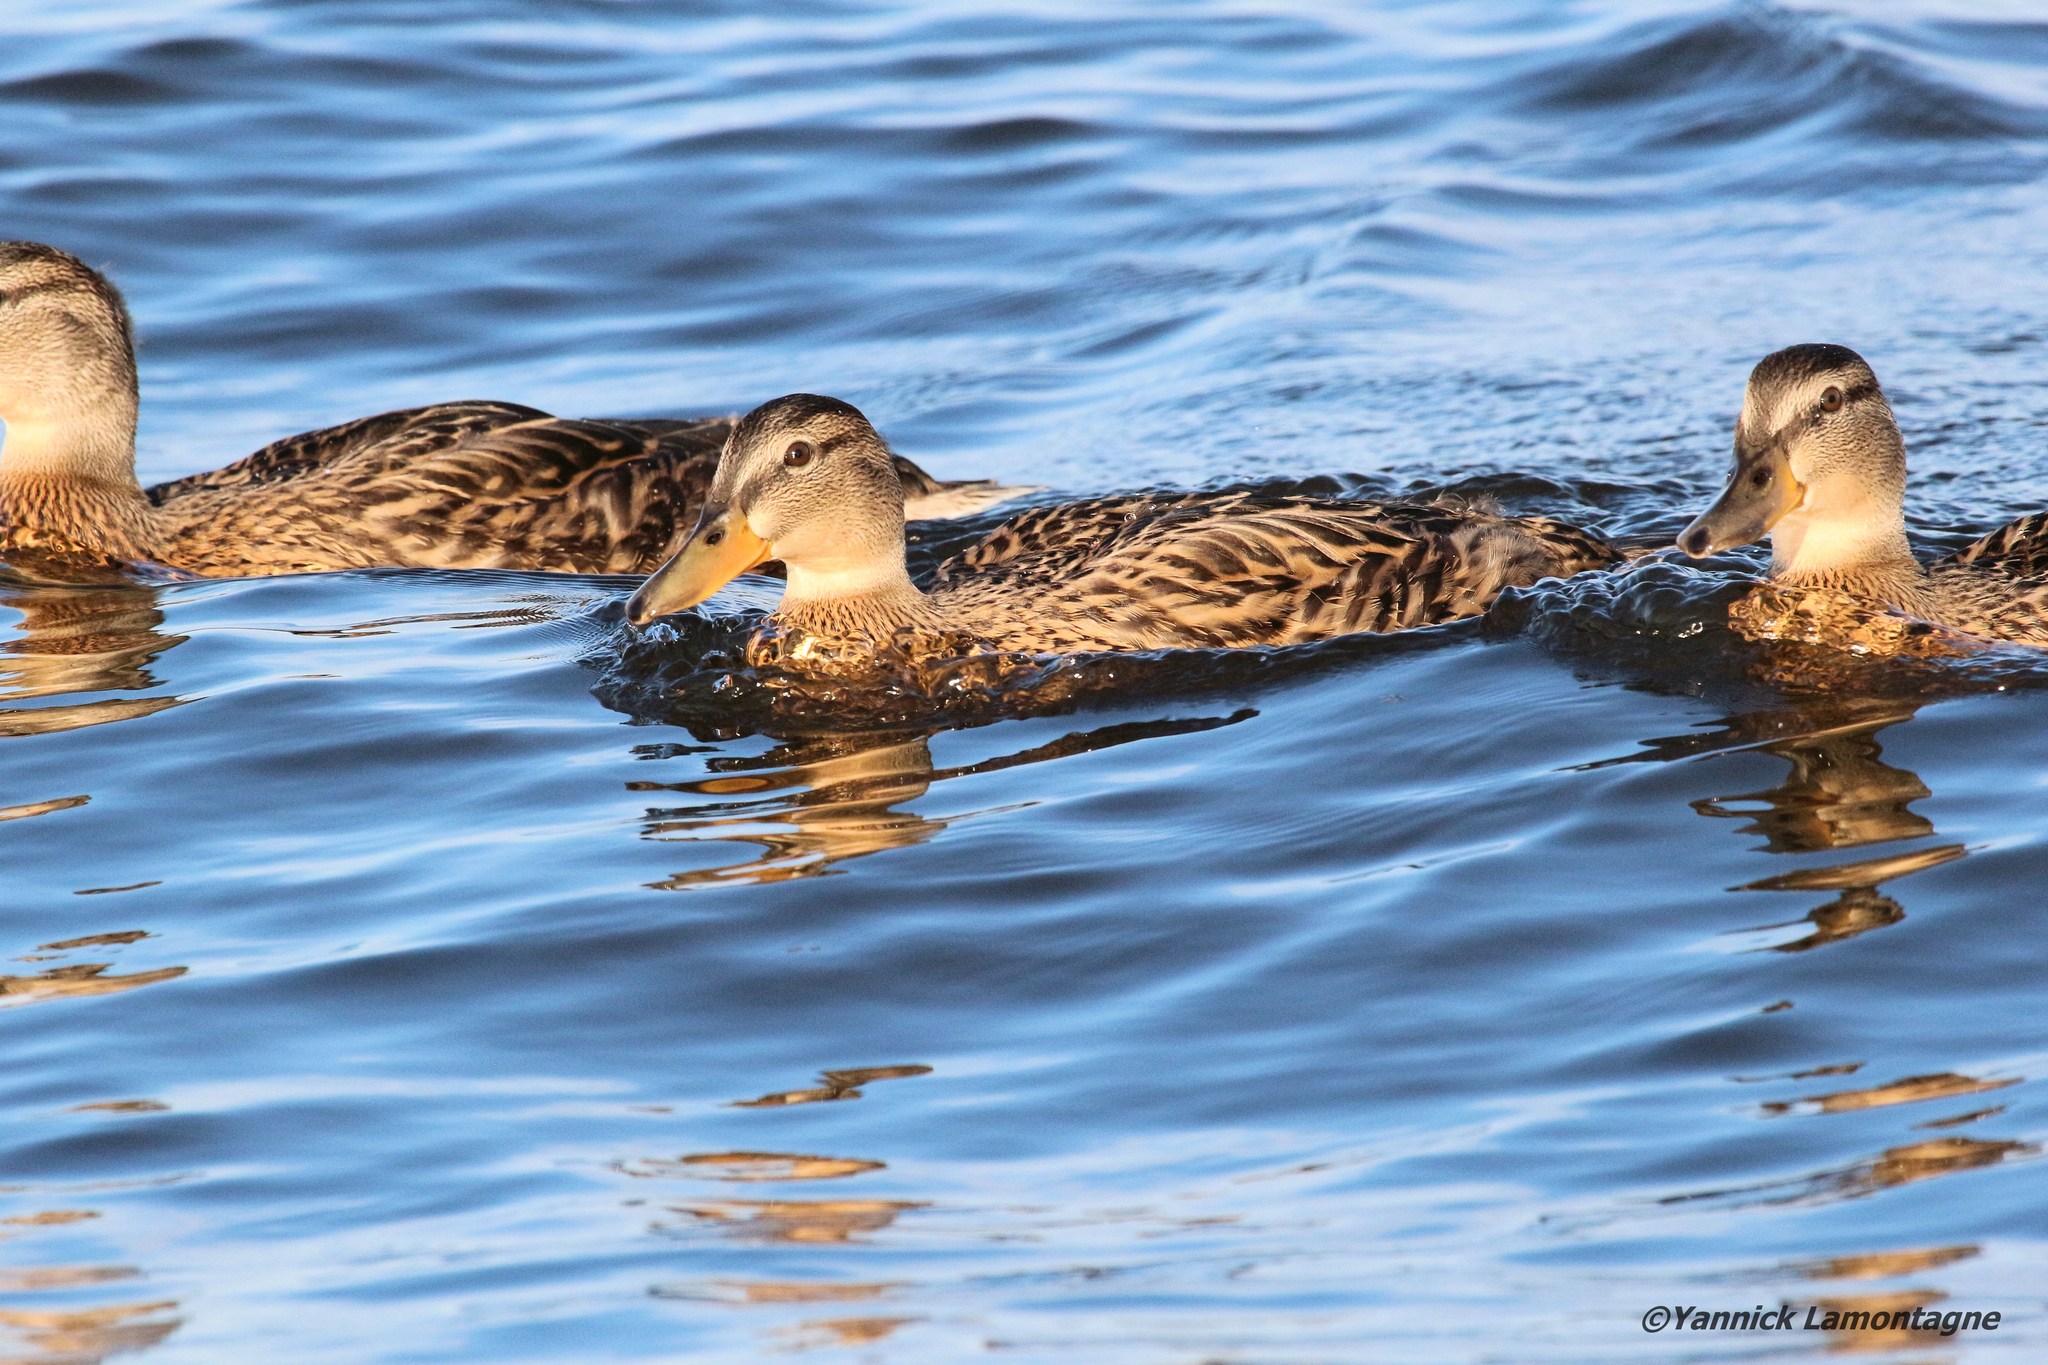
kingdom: Animalia
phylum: Chordata
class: Aves
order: Anseriformes
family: Anatidae
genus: Anas
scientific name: Anas platyrhynchos
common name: Mallard
